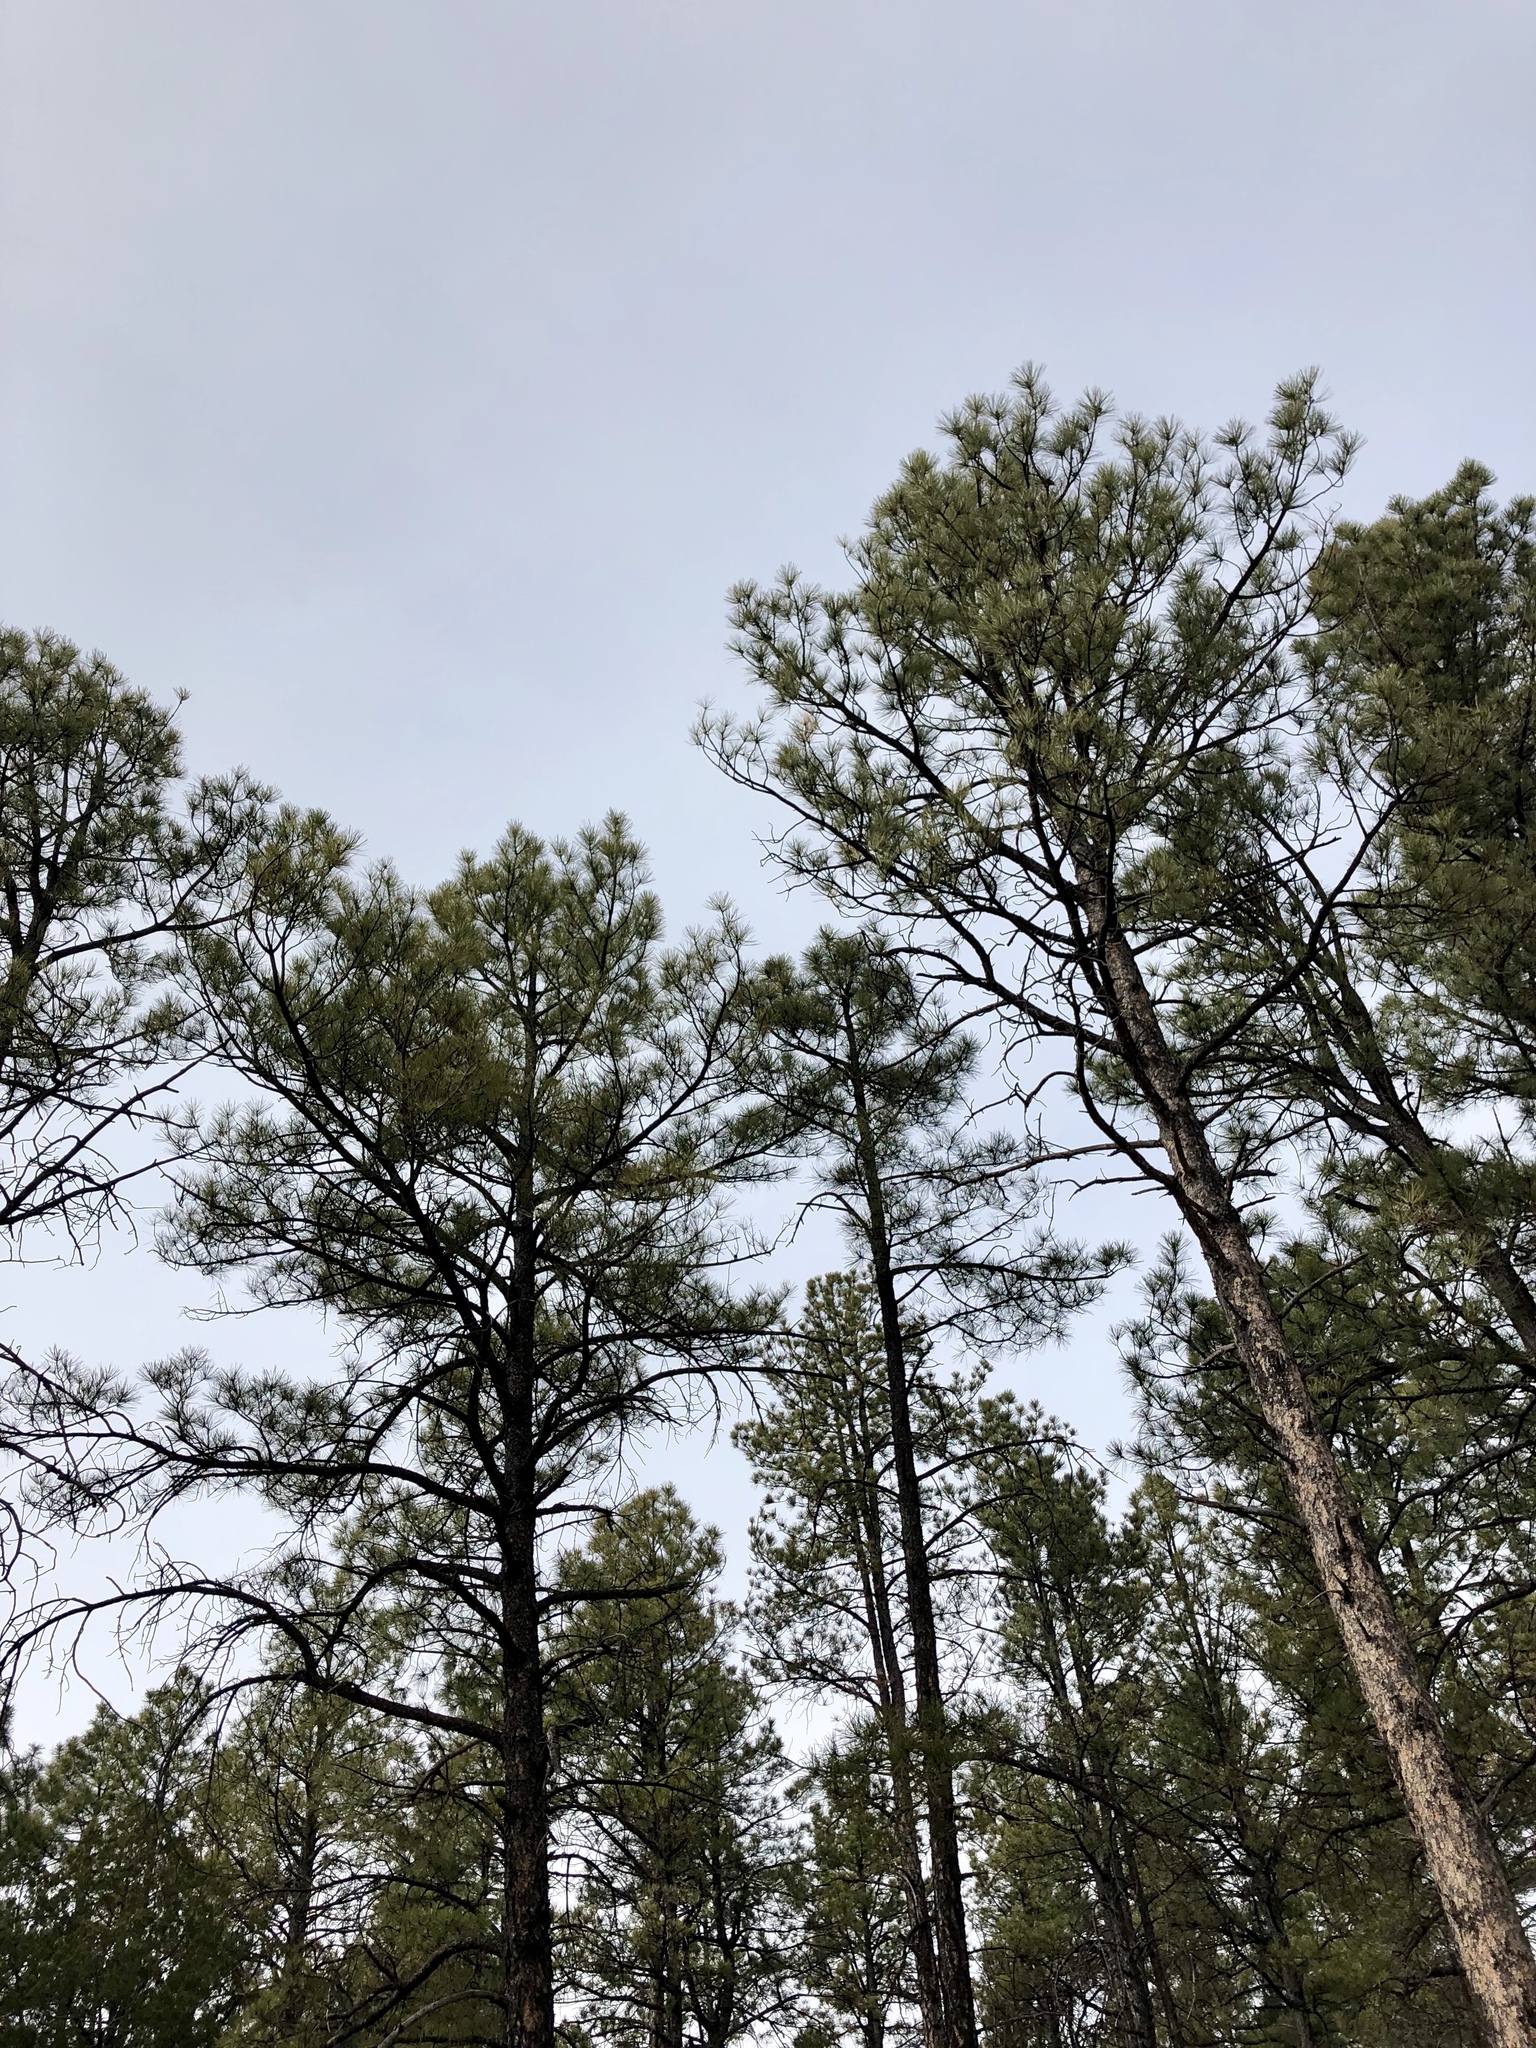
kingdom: Plantae
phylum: Tracheophyta
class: Pinopsida
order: Pinales
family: Pinaceae
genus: Pinus
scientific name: Pinus ponderosa
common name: Western yellow-pine
